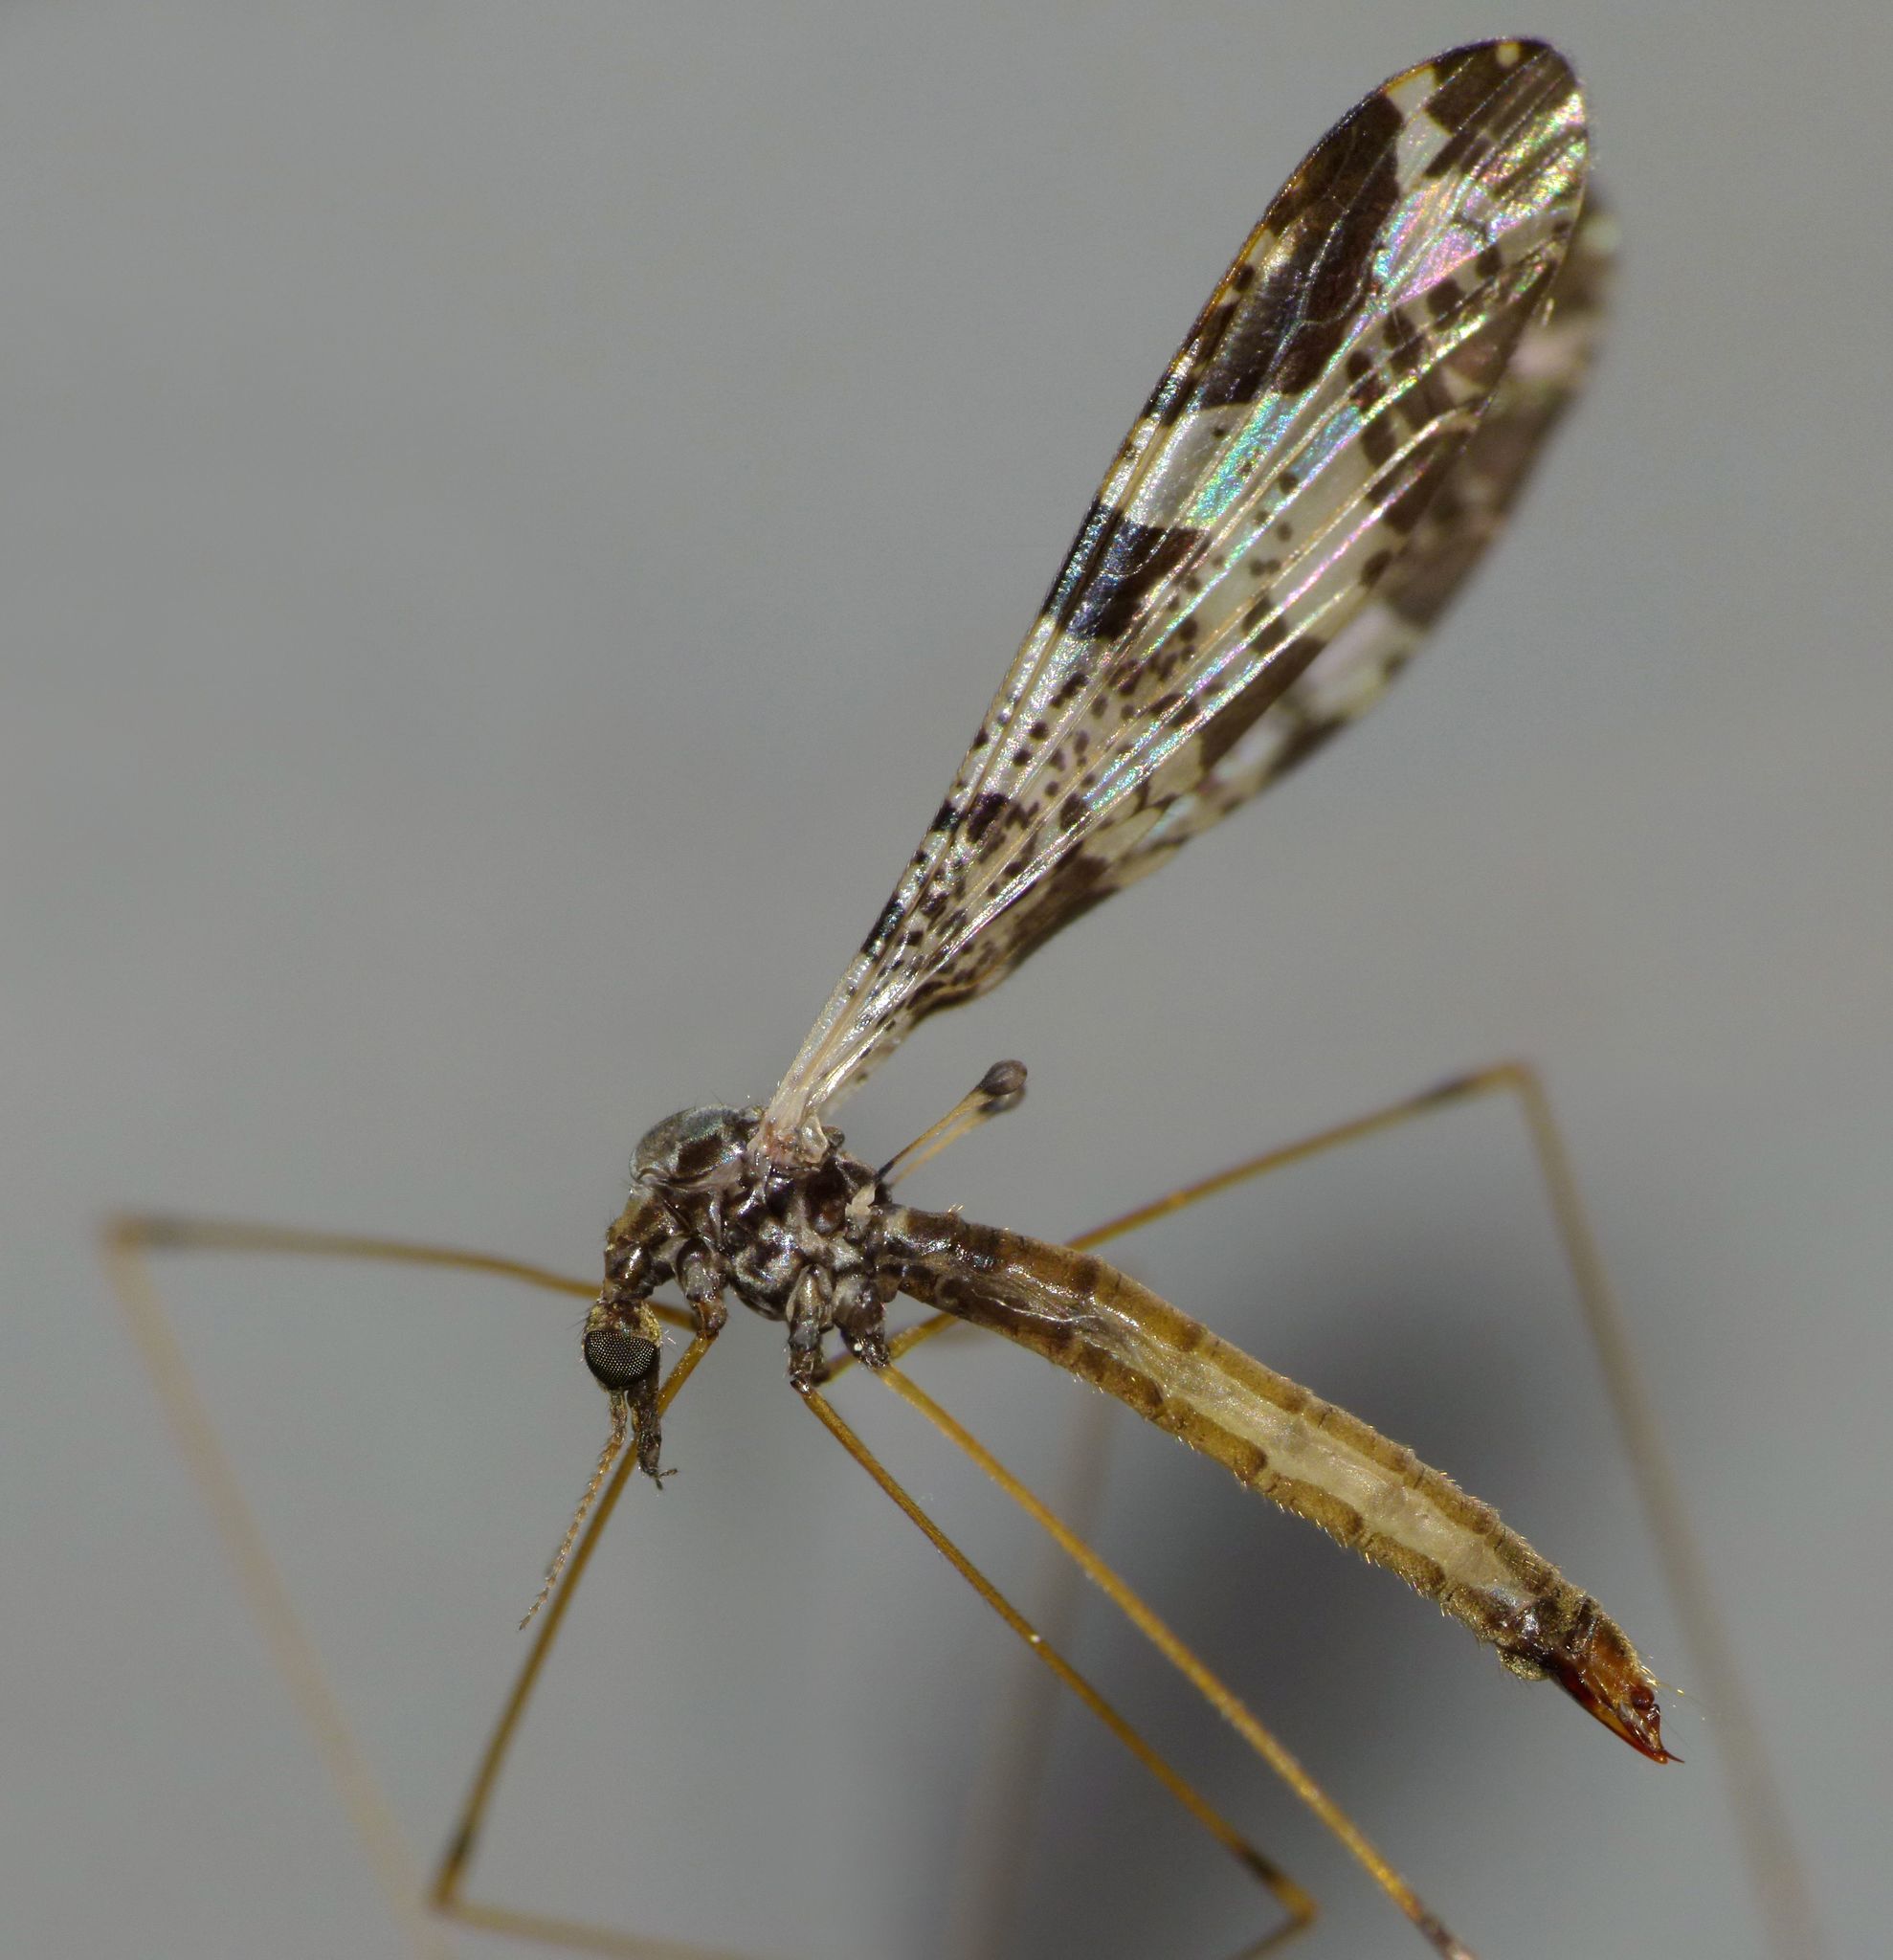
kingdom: Animalia
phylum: Arthropoda
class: Insecta
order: Diptera
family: Limoniidae
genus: Discobola
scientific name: Discobola venustula
